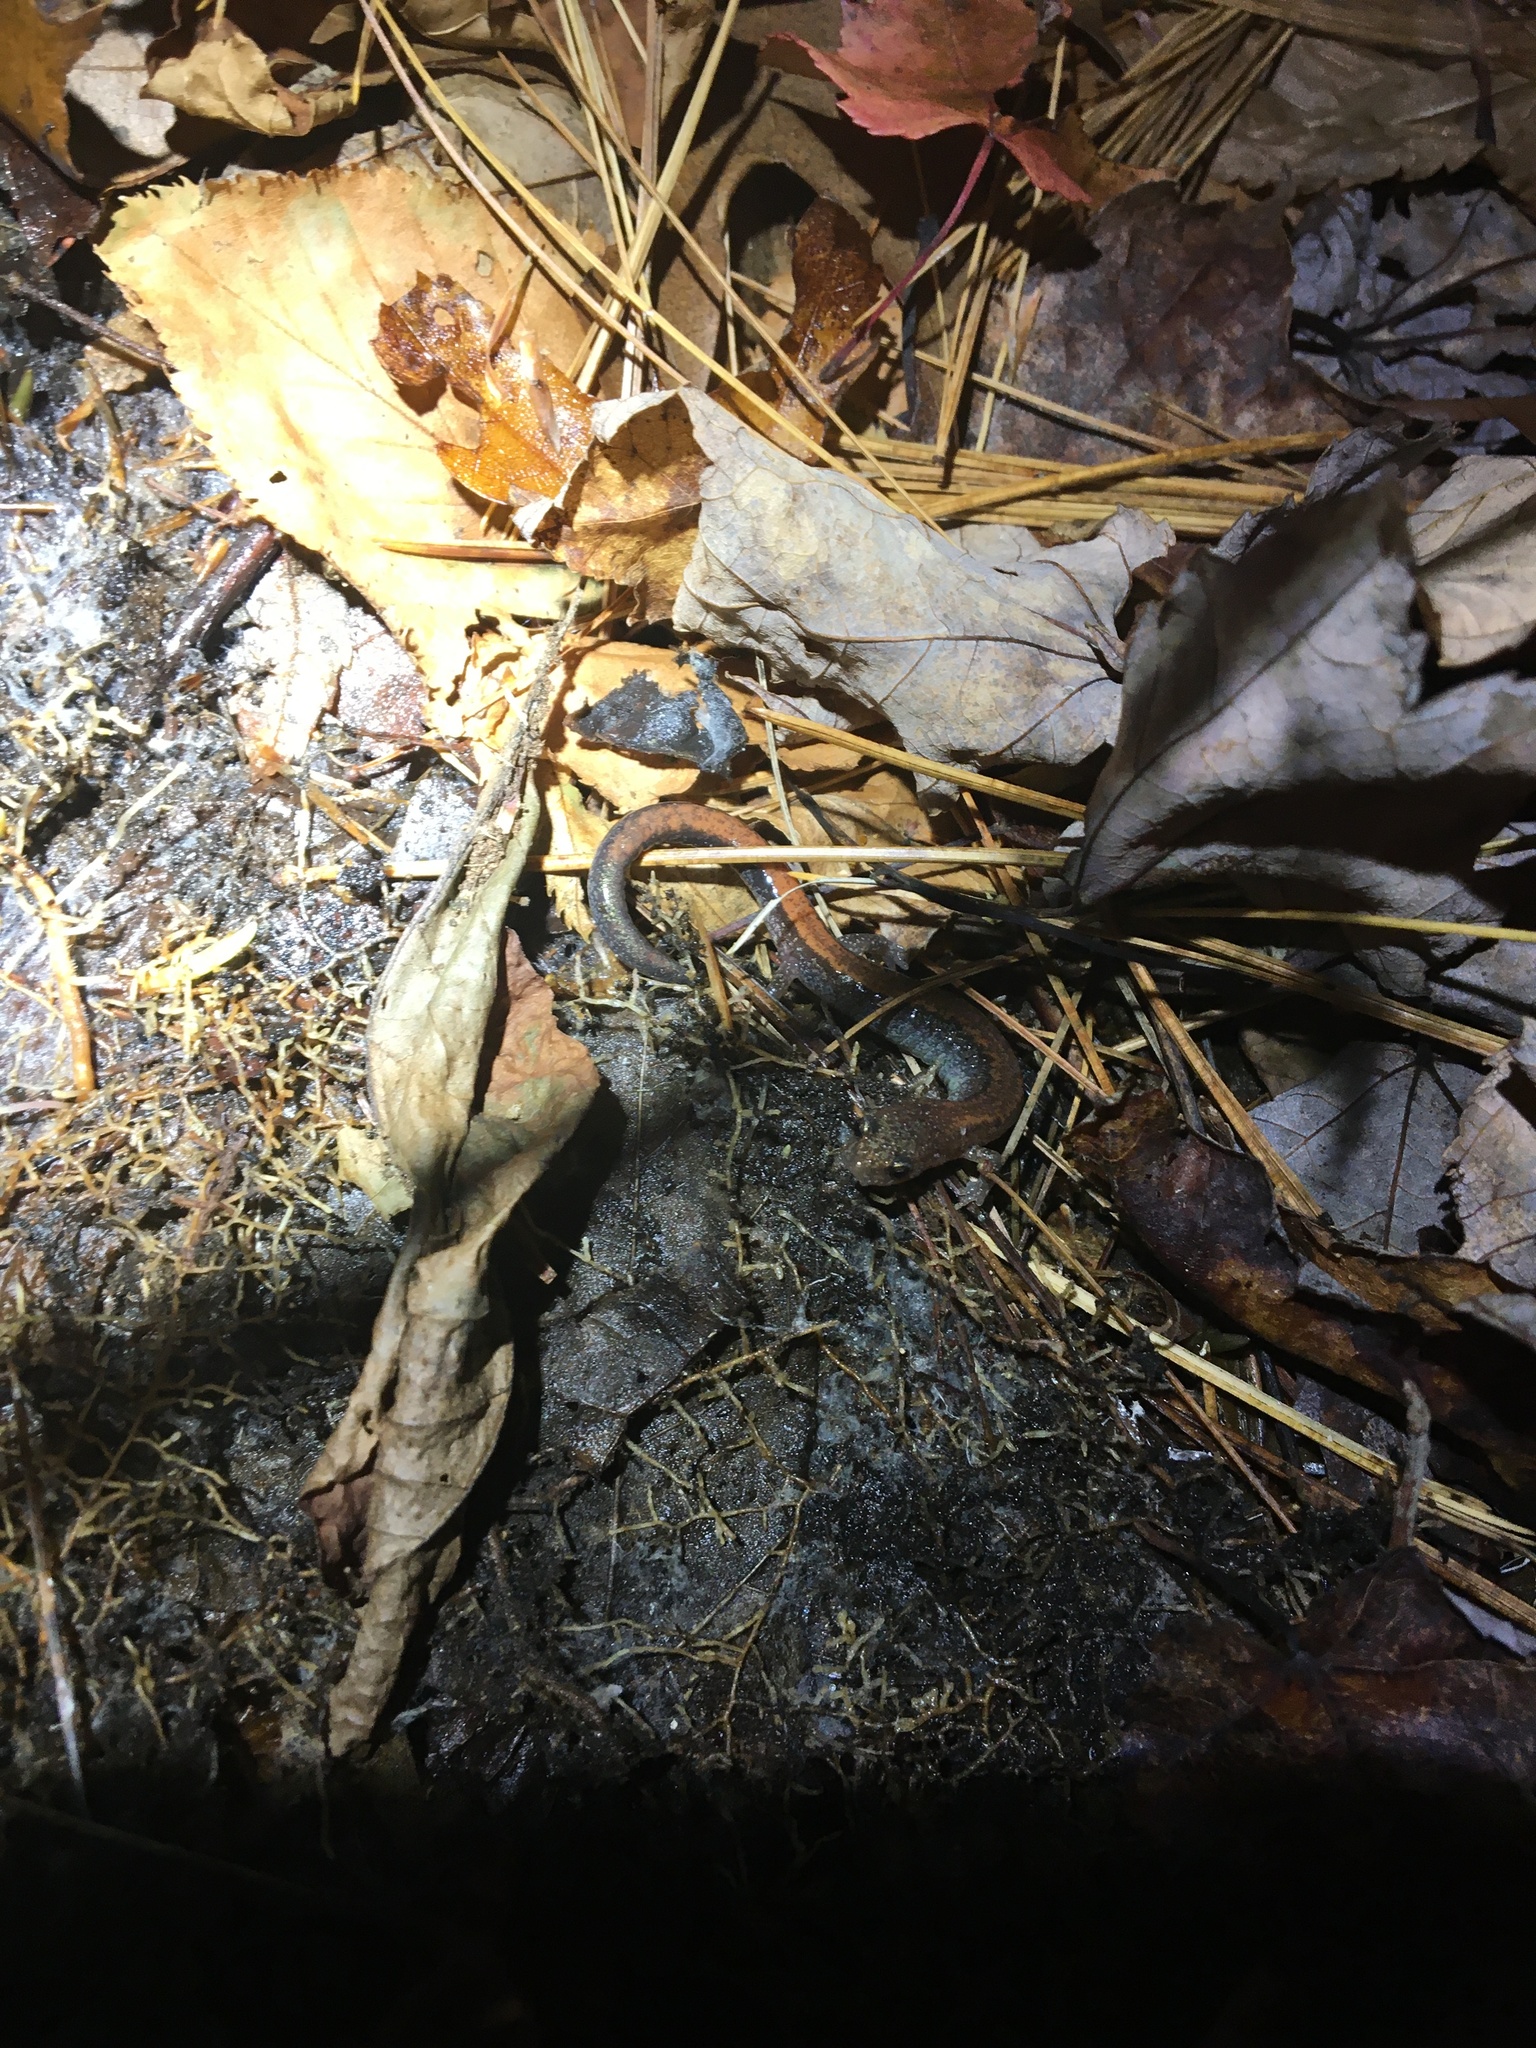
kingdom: Animalia
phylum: Chordata
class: Amphibia
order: Caudata
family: Plethodontidae
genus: Plethodon
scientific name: Plethodon cinereus
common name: Redback salamander
